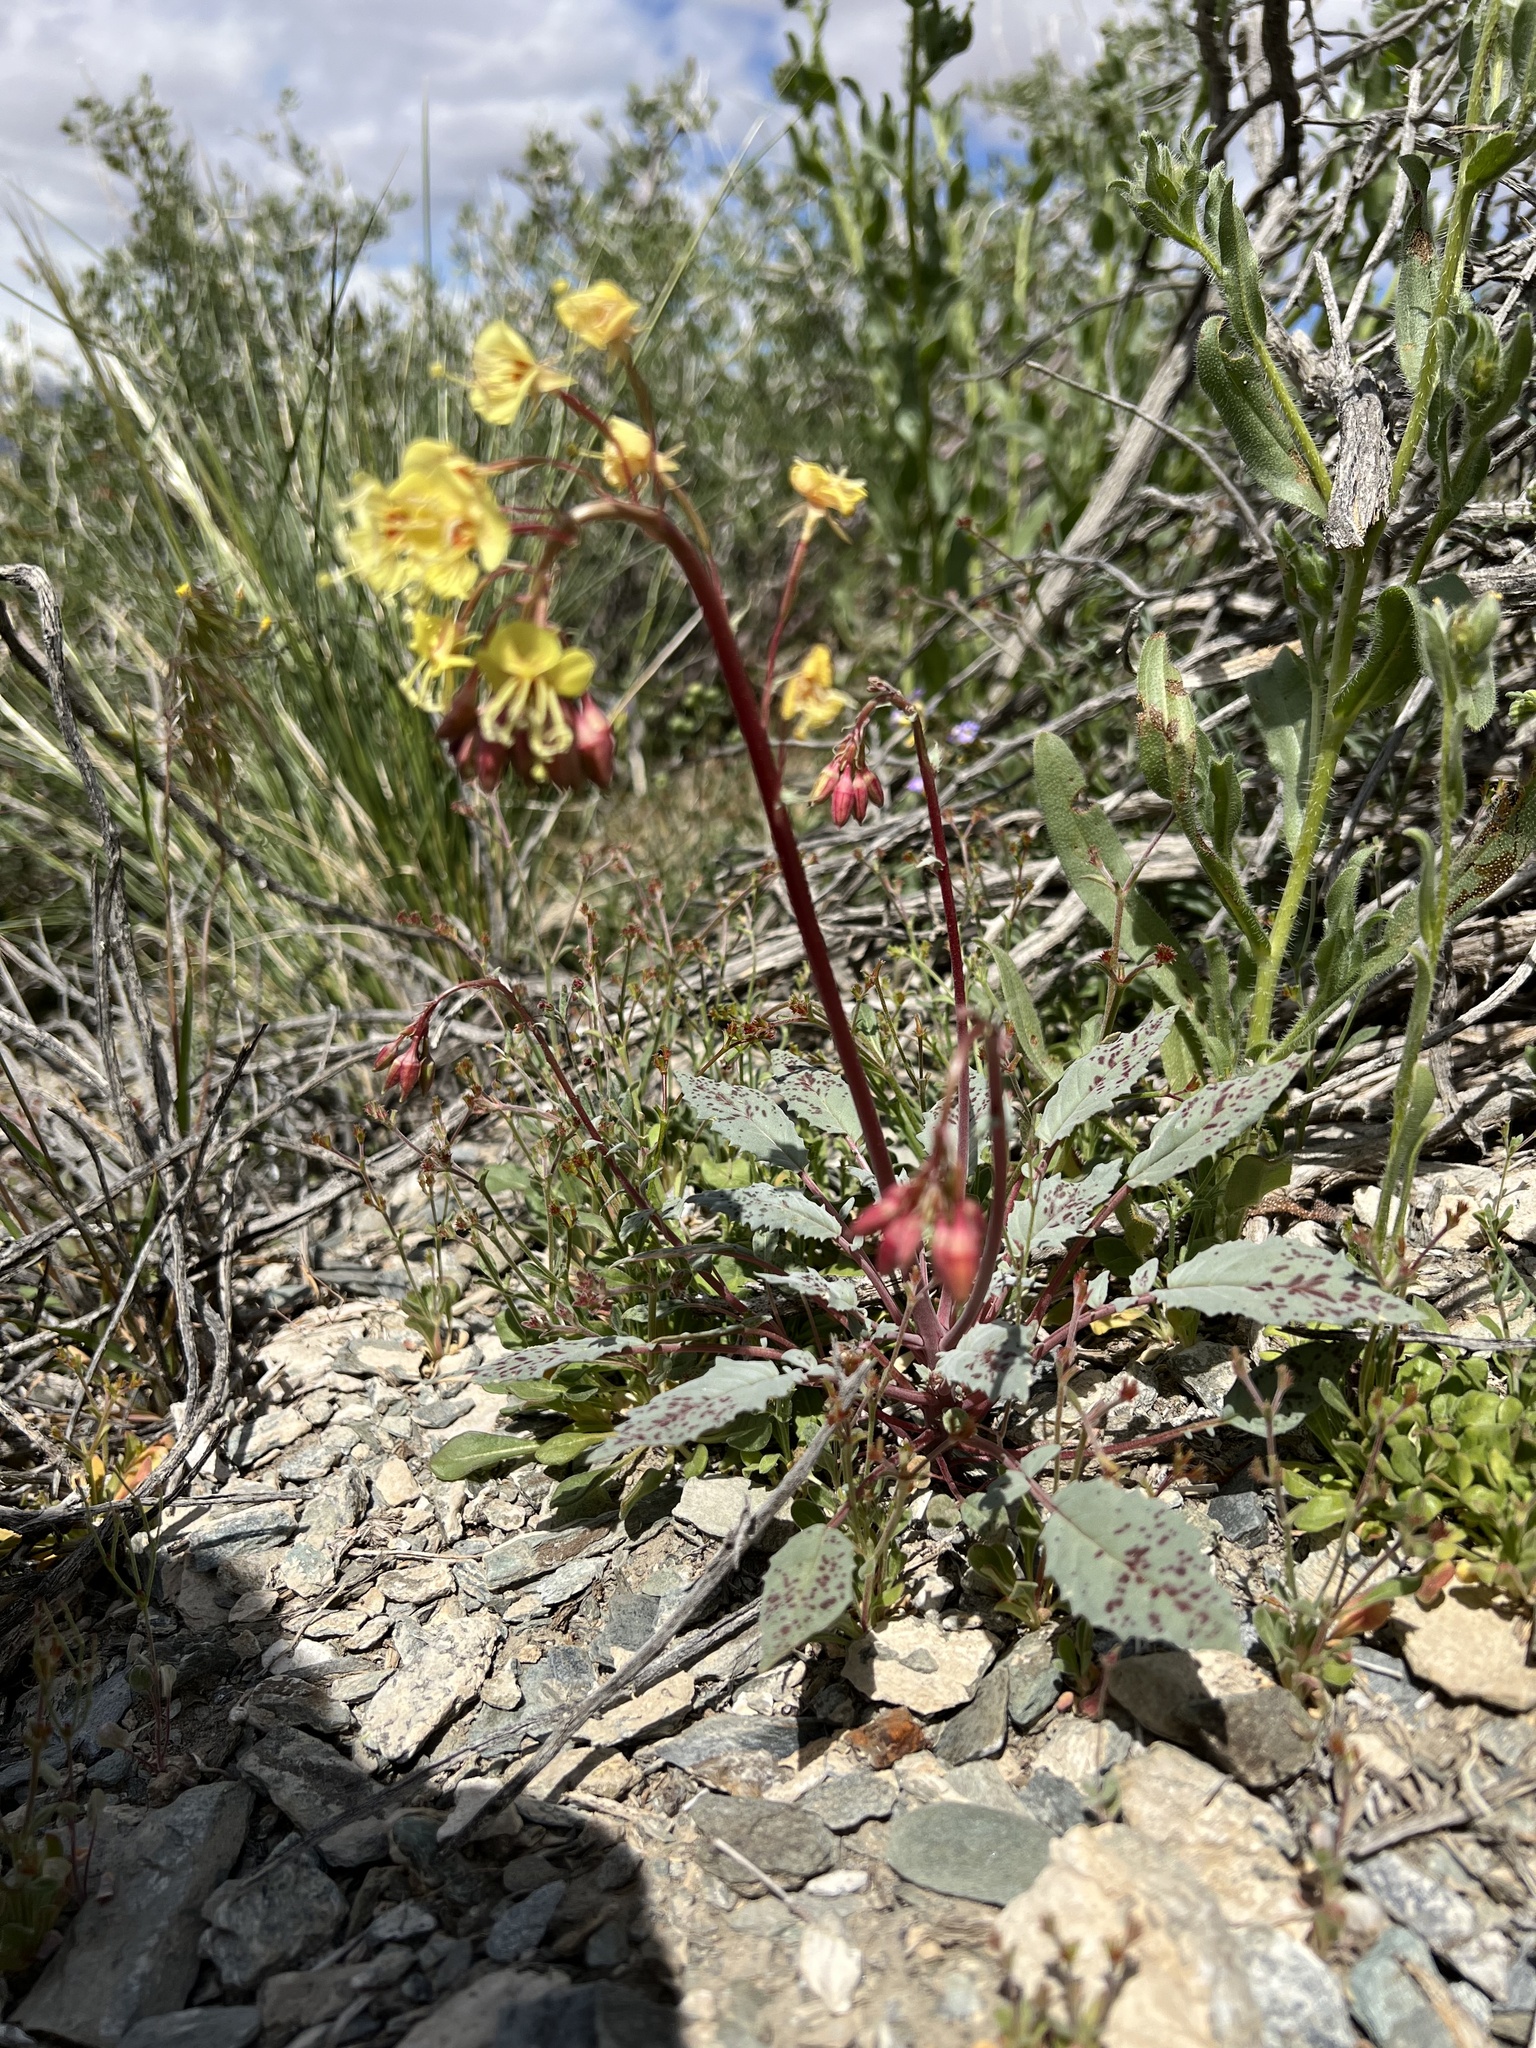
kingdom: Plantae
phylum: Tracheophyta
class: Magnoliopsida
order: Myrtales
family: Onagraceae
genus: Chylismia
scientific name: Chylismia claviformis
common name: Browneyes
